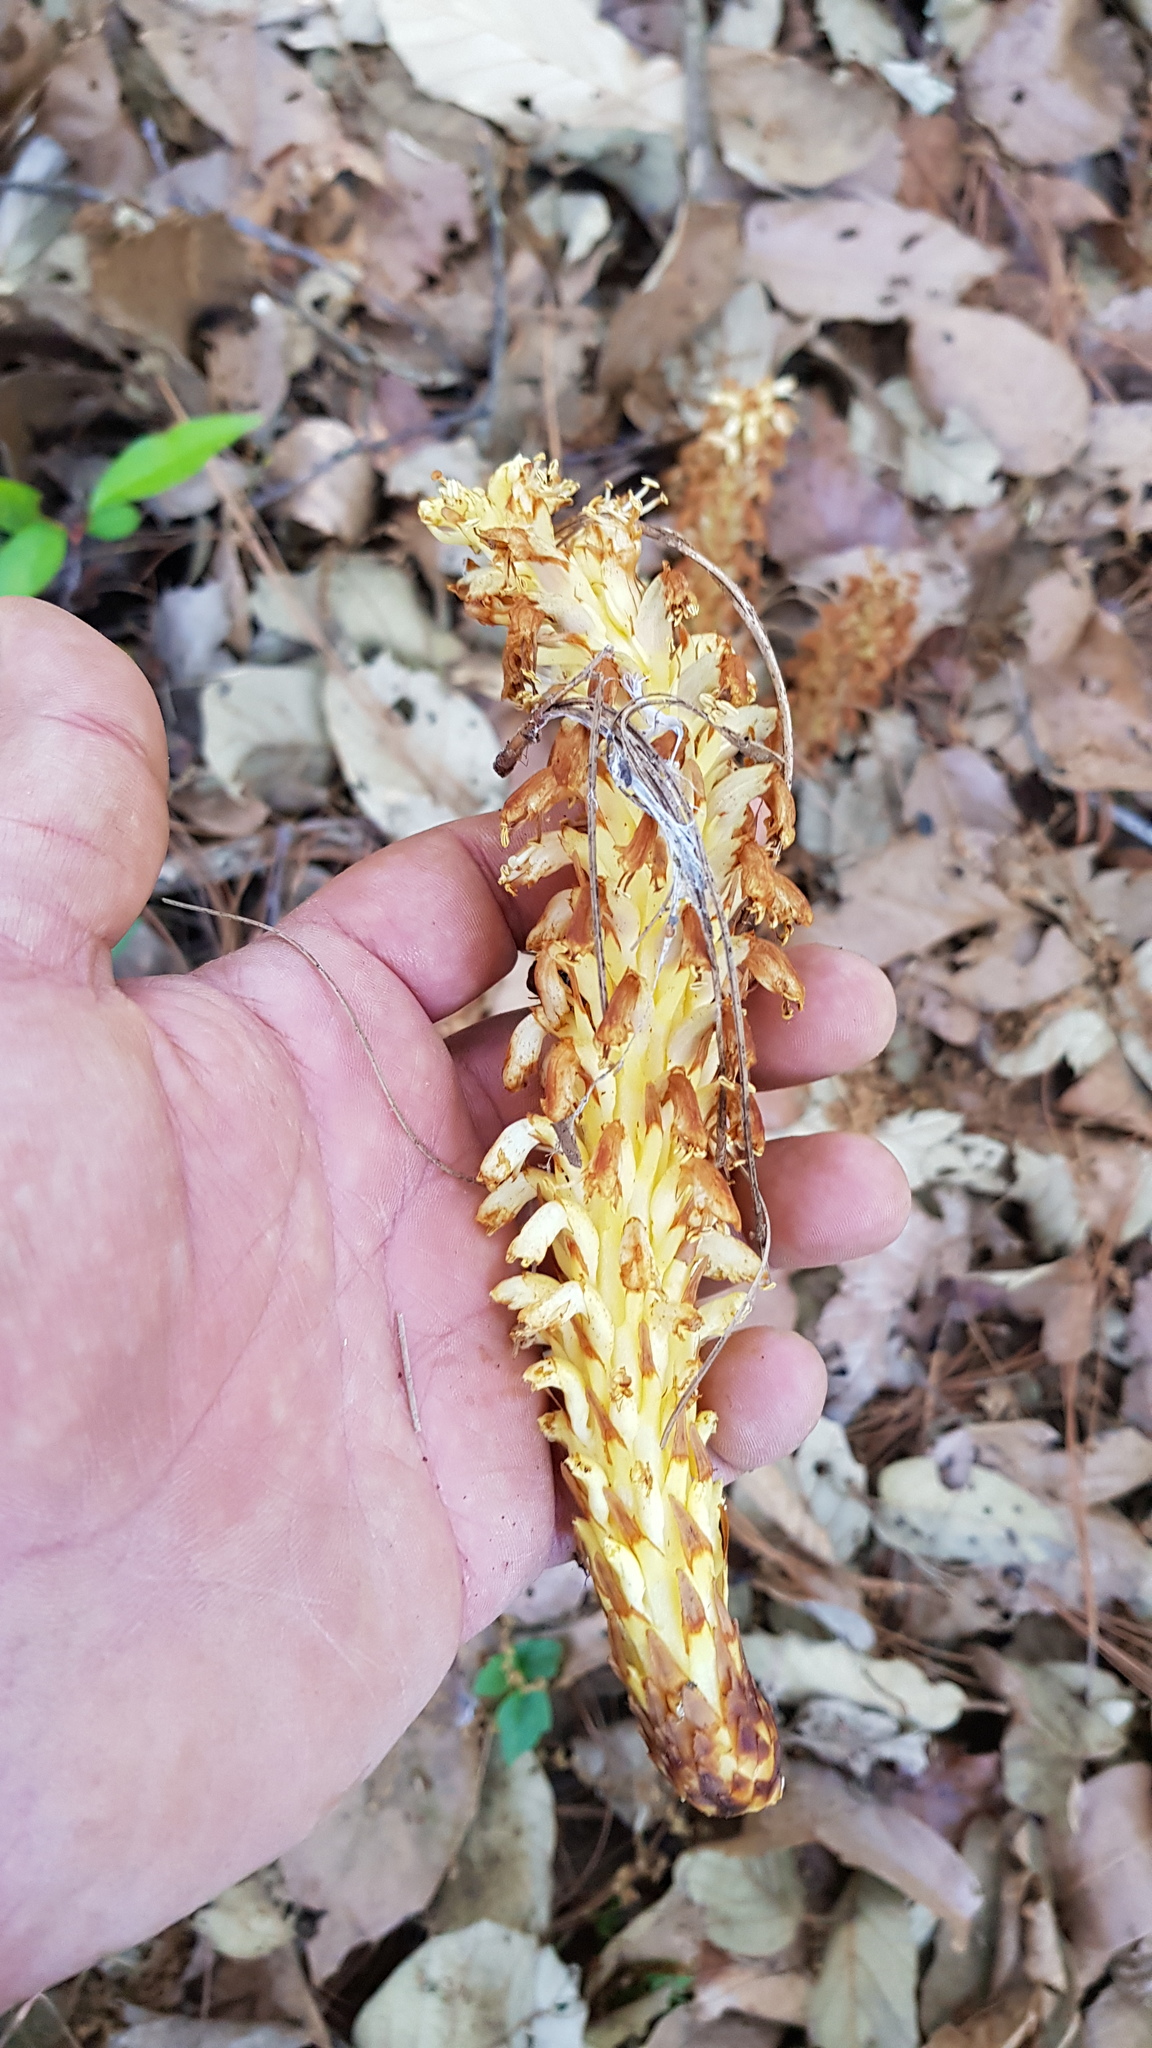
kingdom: Plantae
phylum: Tracheophyta
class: Magnoliopsida
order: Lamiales
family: Orobanchaceae
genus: Conopholis
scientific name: Conopholis alpina
